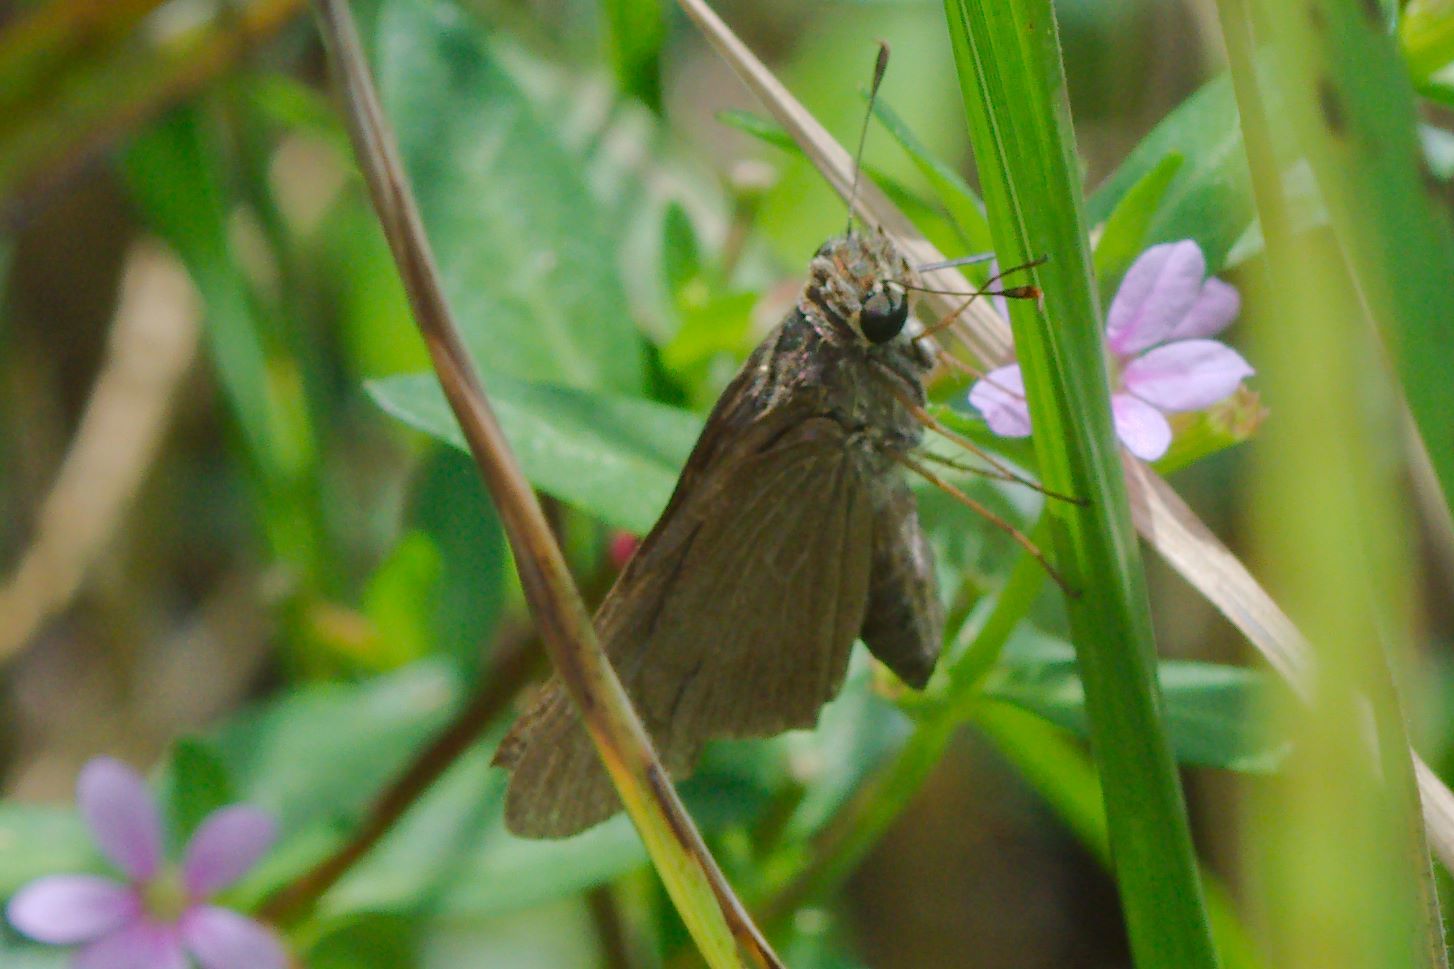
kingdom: Animalia
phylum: Arthropoda
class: Insecta
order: Lepidoptera
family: Hesperiidae
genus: Panoquina
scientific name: Panoquina ocola
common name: Ocola skipper
